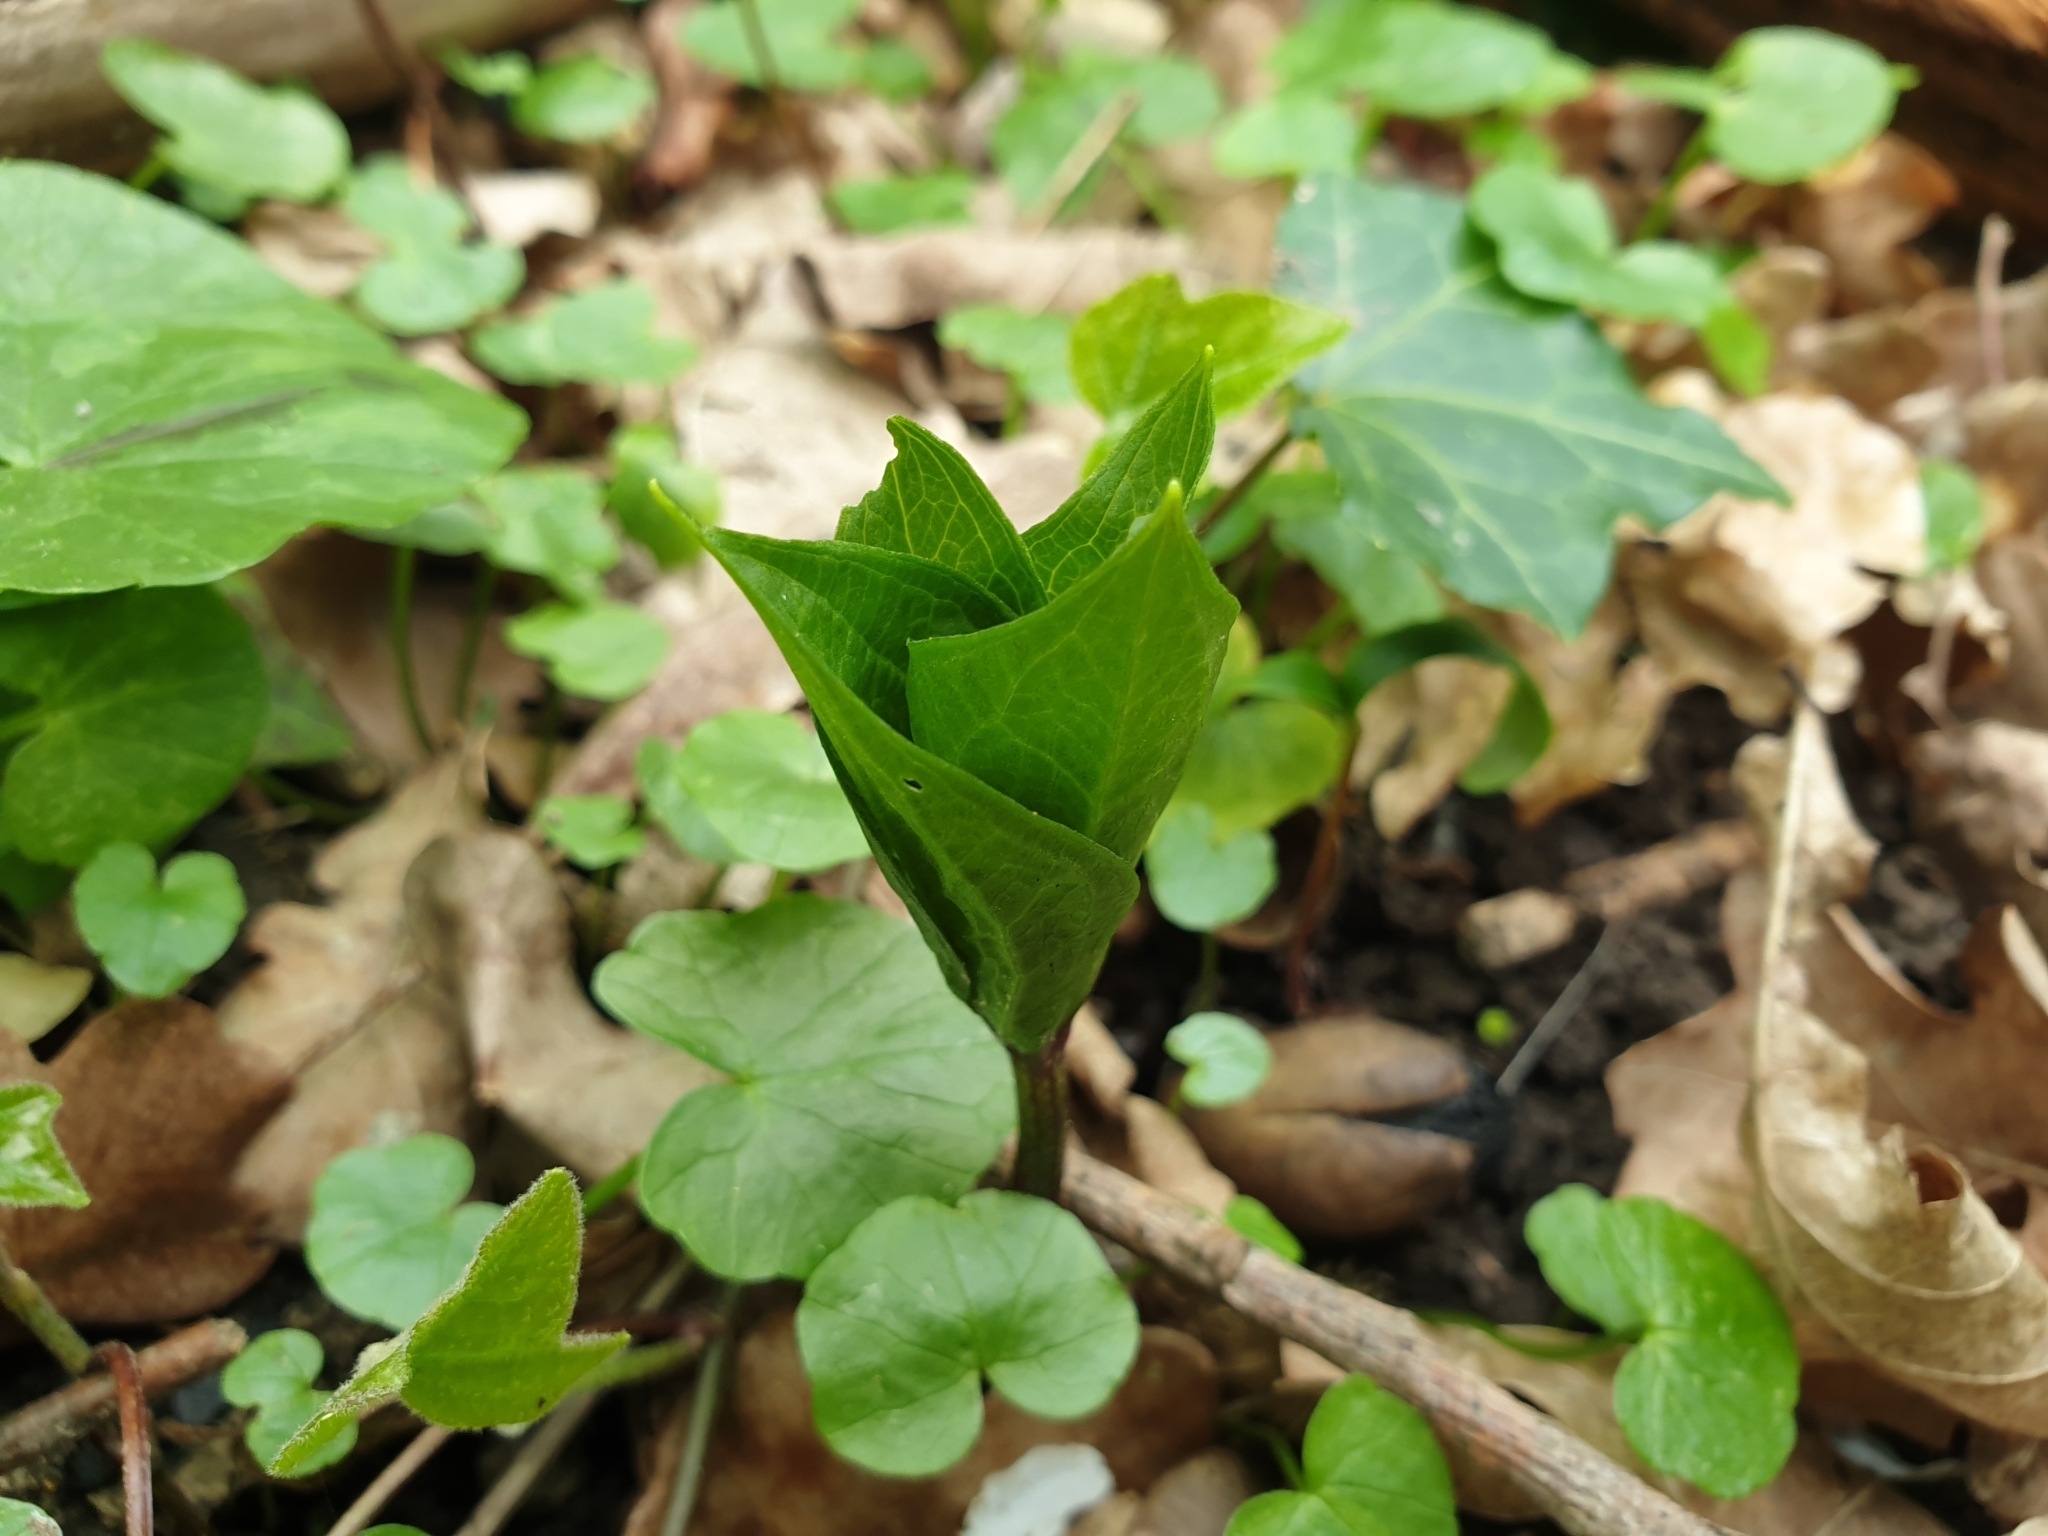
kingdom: Plantae
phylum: Tracheophyta
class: Liliopsida
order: Liliales
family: Melanthiaceae
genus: Paris
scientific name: Paris quadrifolia
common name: Herb-paris
